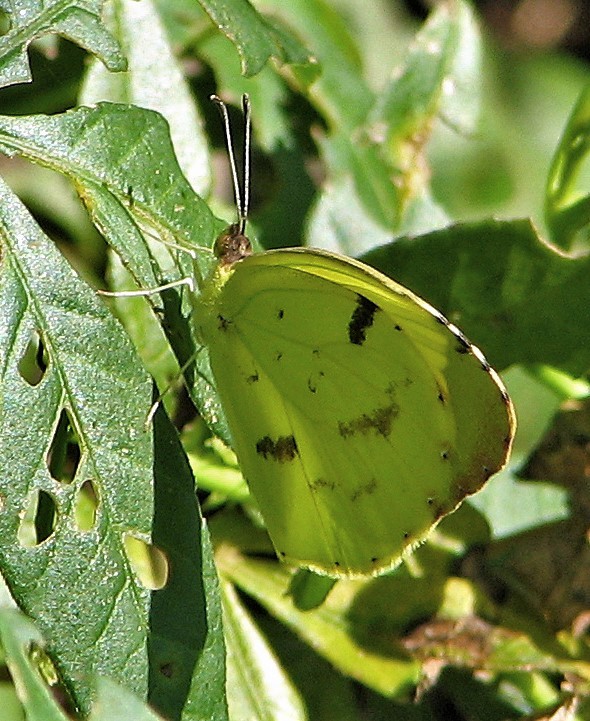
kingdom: Animalia
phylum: Arthropoda
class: Insecta
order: Lepidoptera
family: Pieridae
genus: Teriocolias
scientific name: Teriocolias
